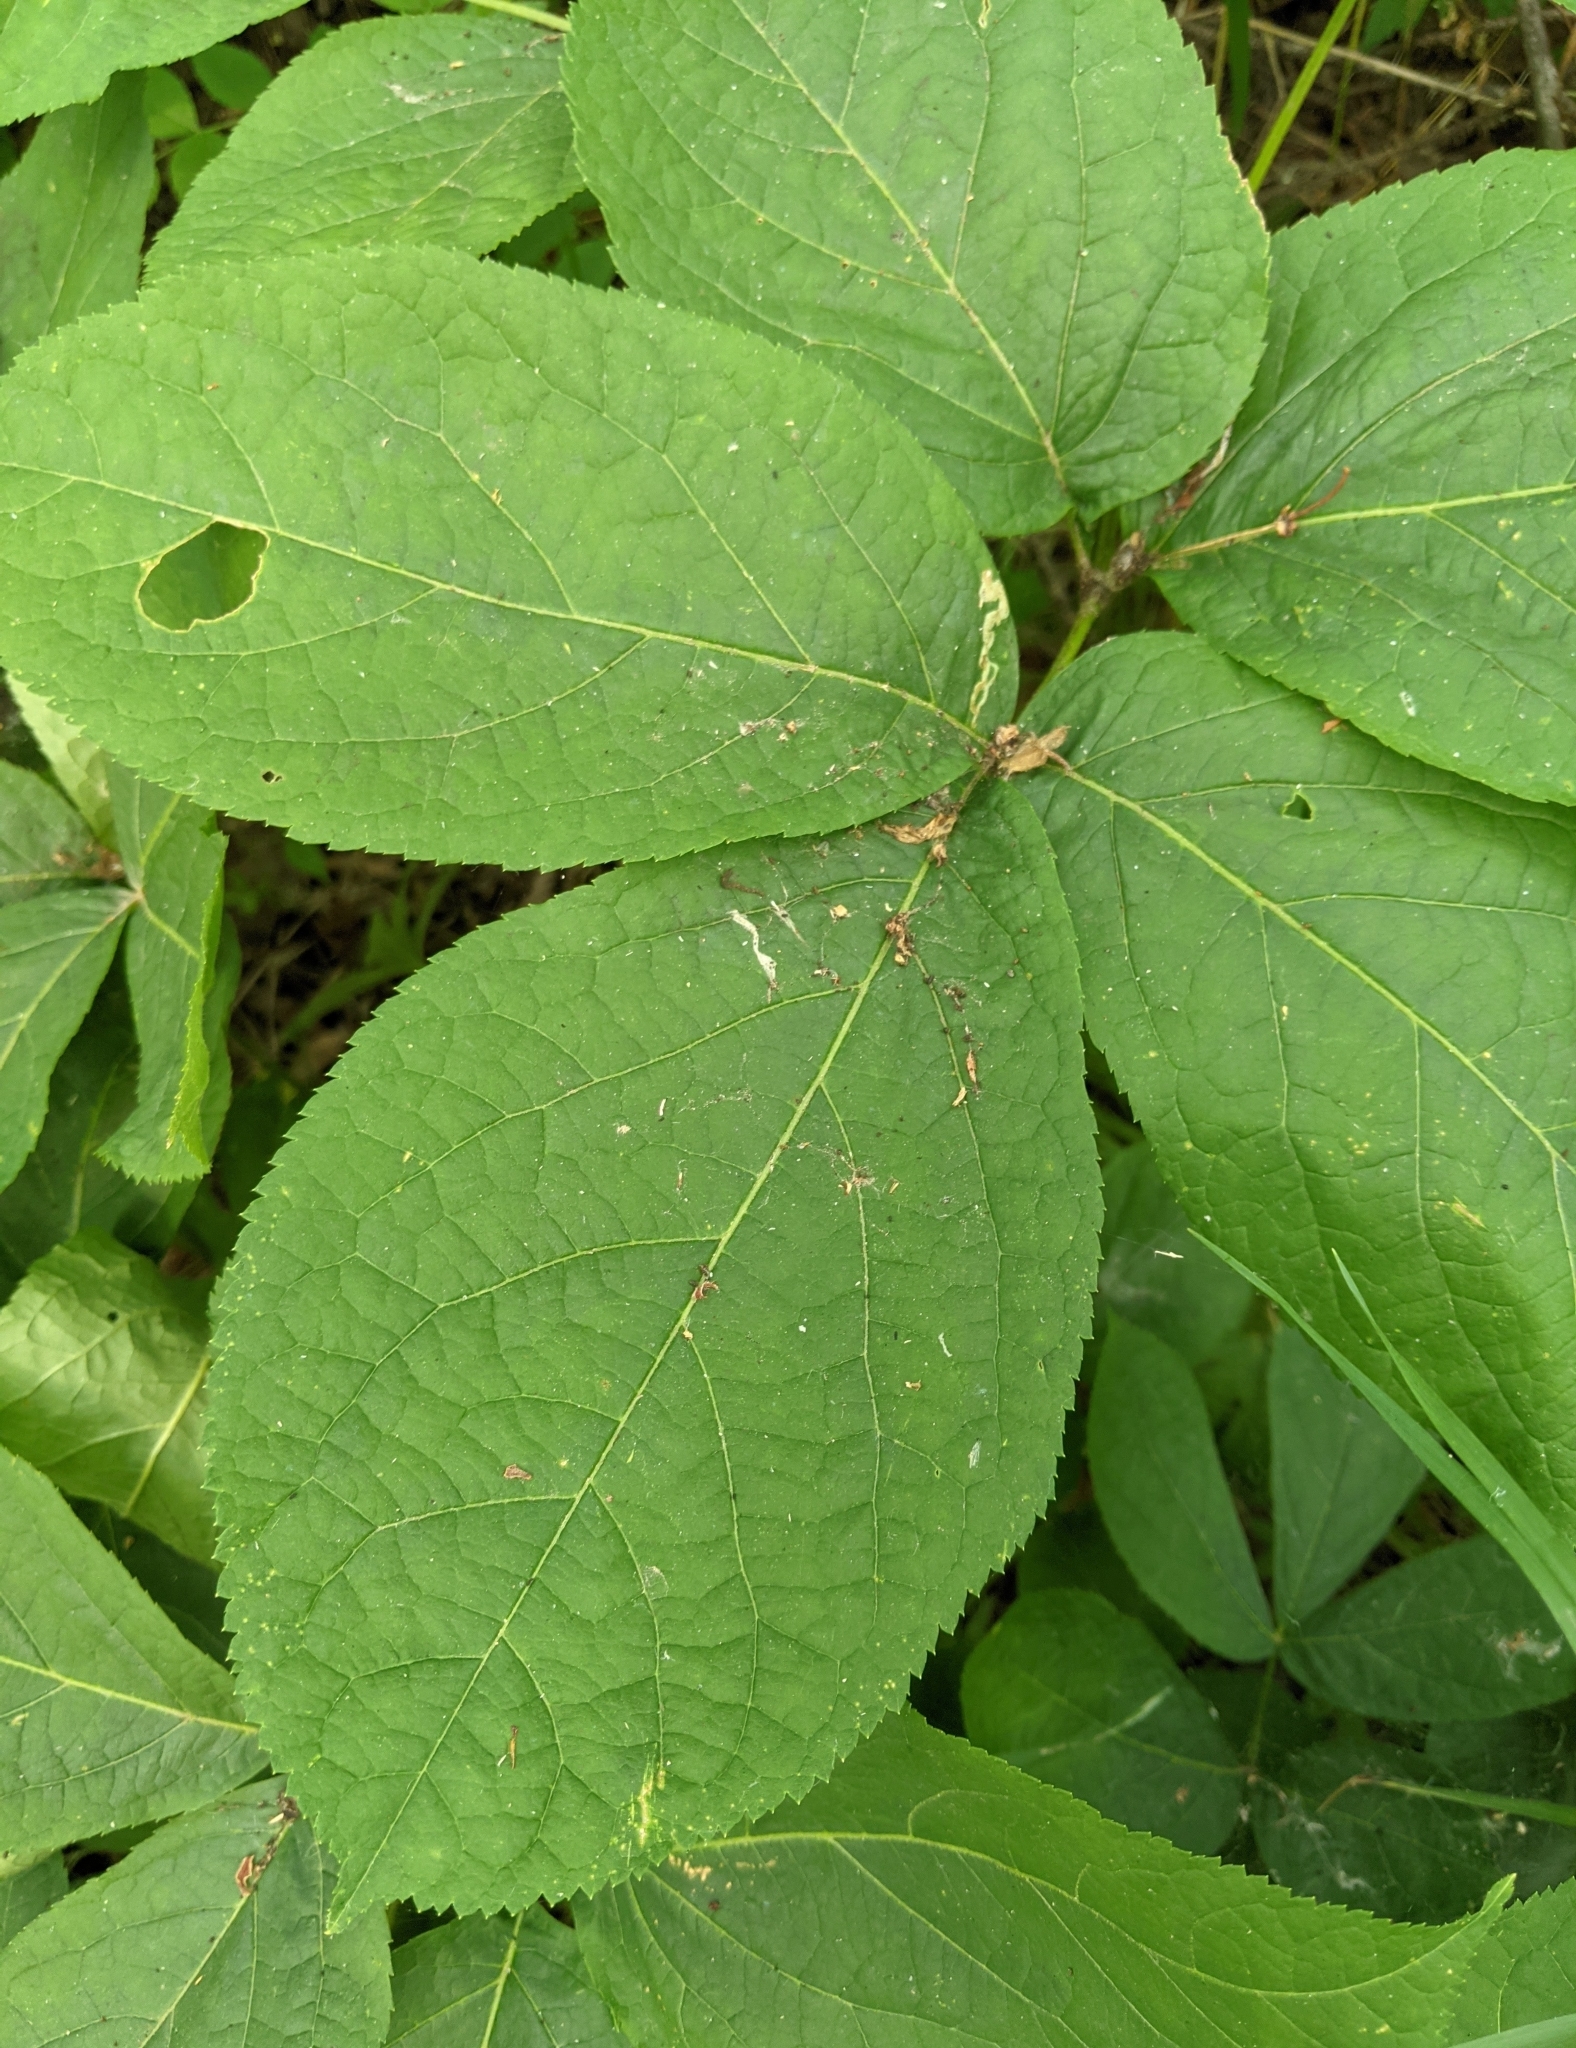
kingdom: Plantae
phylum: Tracheophyta
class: Magnoliopsida
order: Apiales
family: Araliaceae
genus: Aralia
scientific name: Aralia nudicaulis
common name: Wild sarsaparilla
